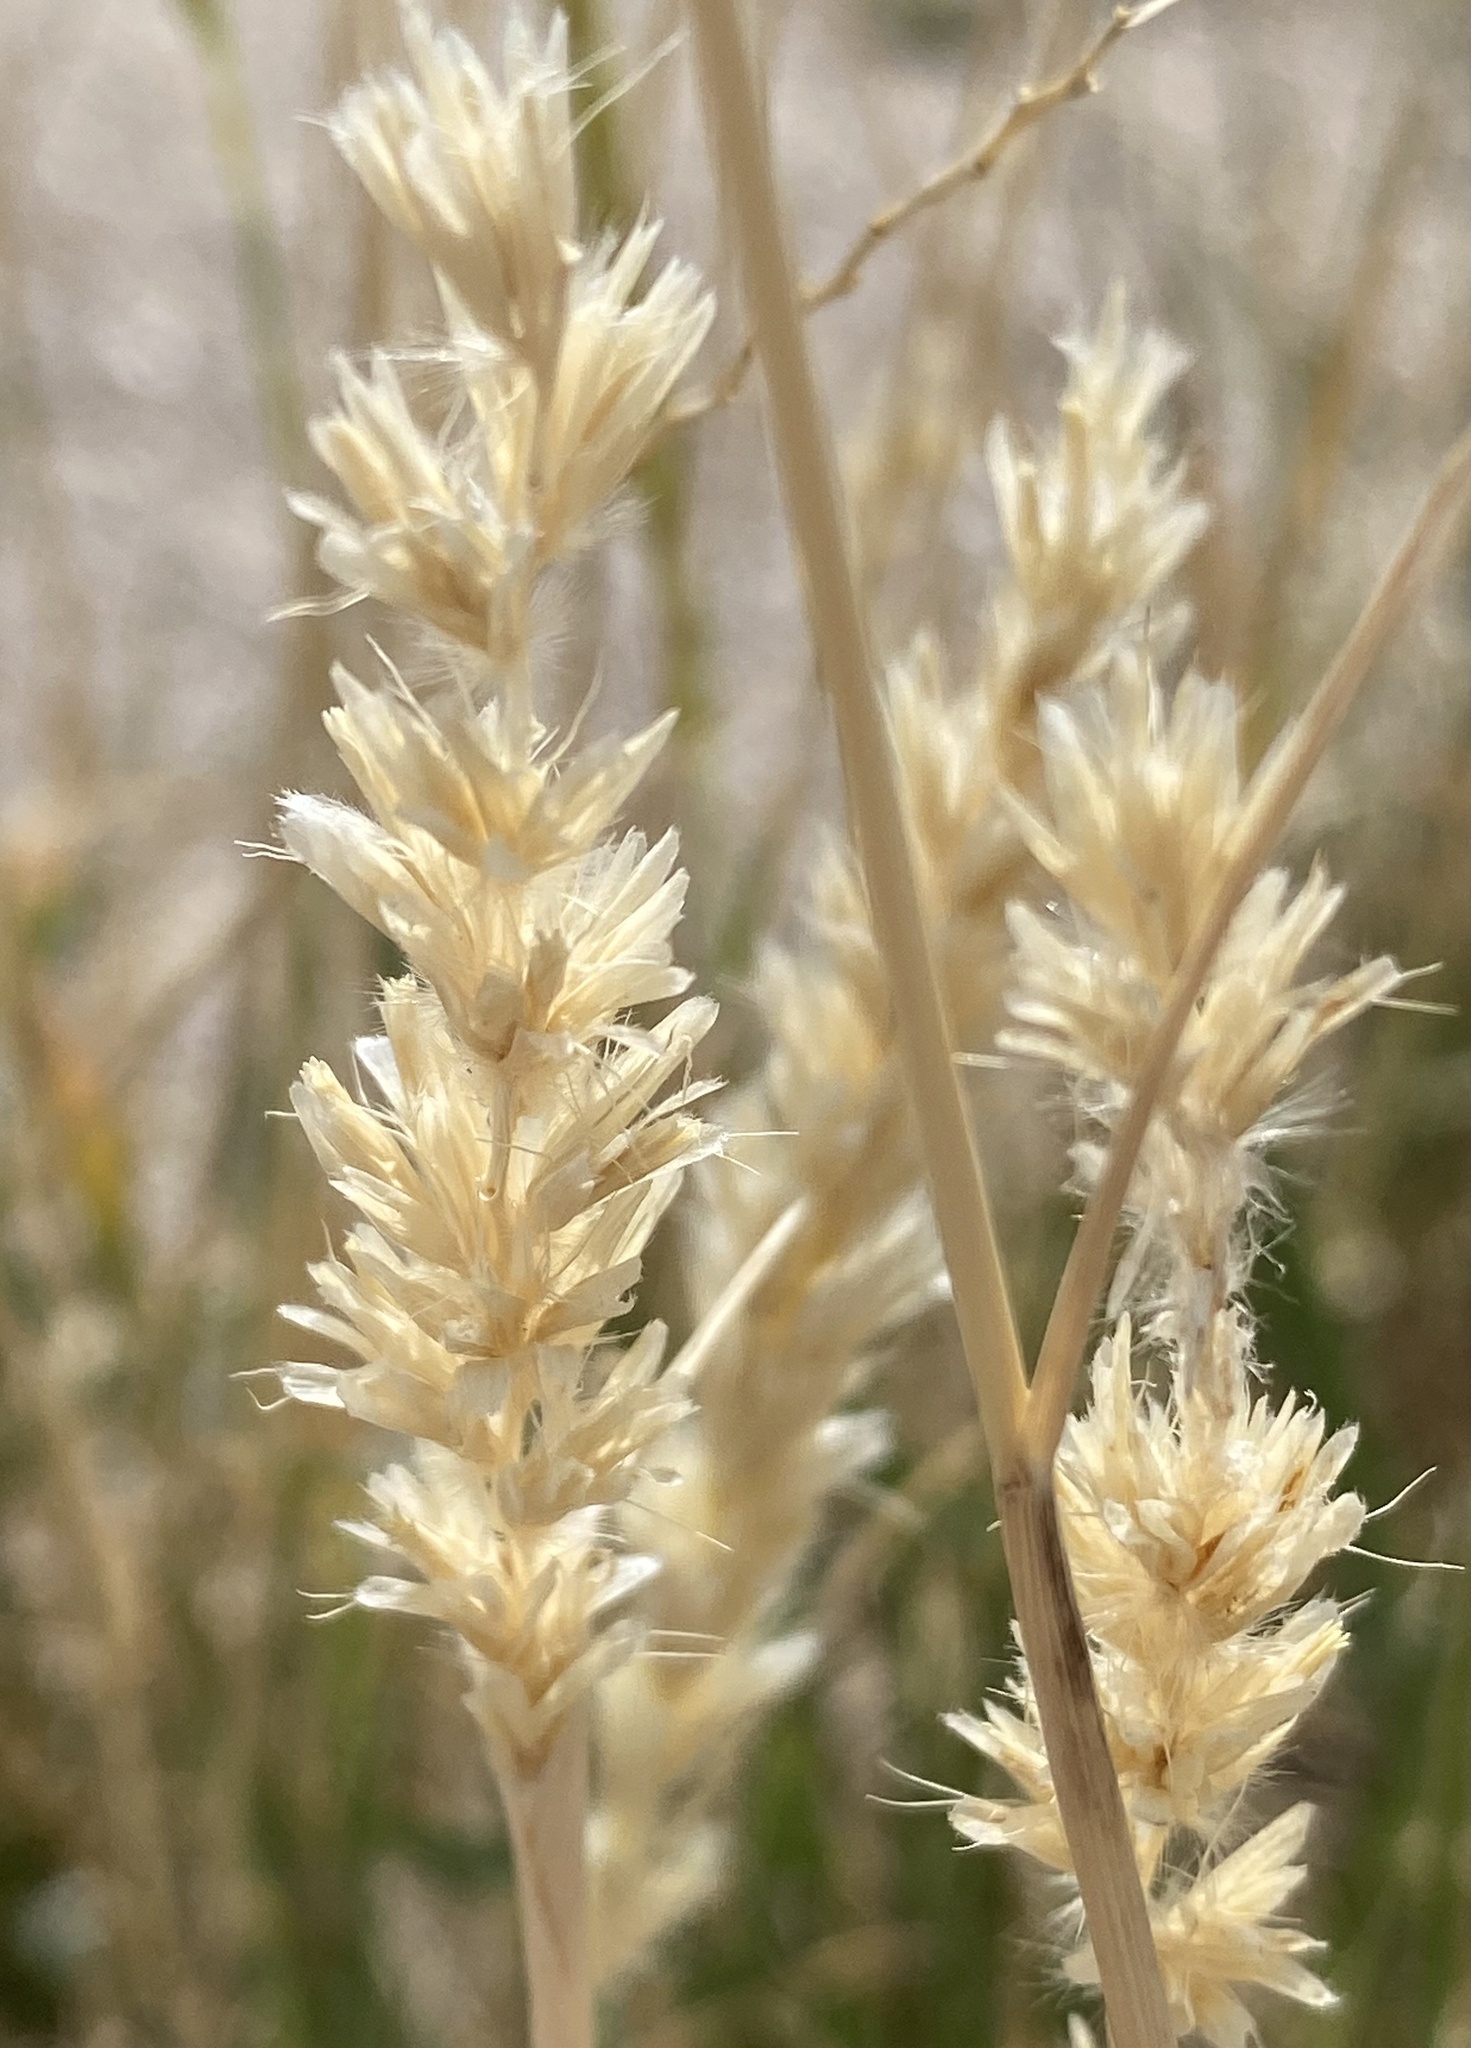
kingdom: Plantae
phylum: Tracheophyta
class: Liliopsida
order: Poales
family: Poaceae
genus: Hilaria
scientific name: Hilaria mutica
